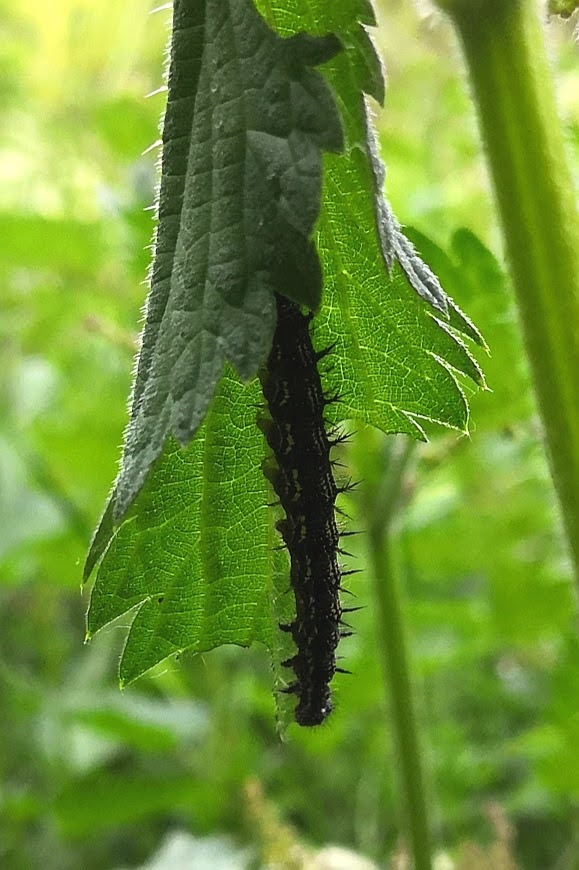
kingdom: Animalia
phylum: Arthropoda
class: Insecta
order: Lepidoptera
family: Nymphalidae
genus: Aglais
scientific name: Aglais urticae
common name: Small tortoiseshell
